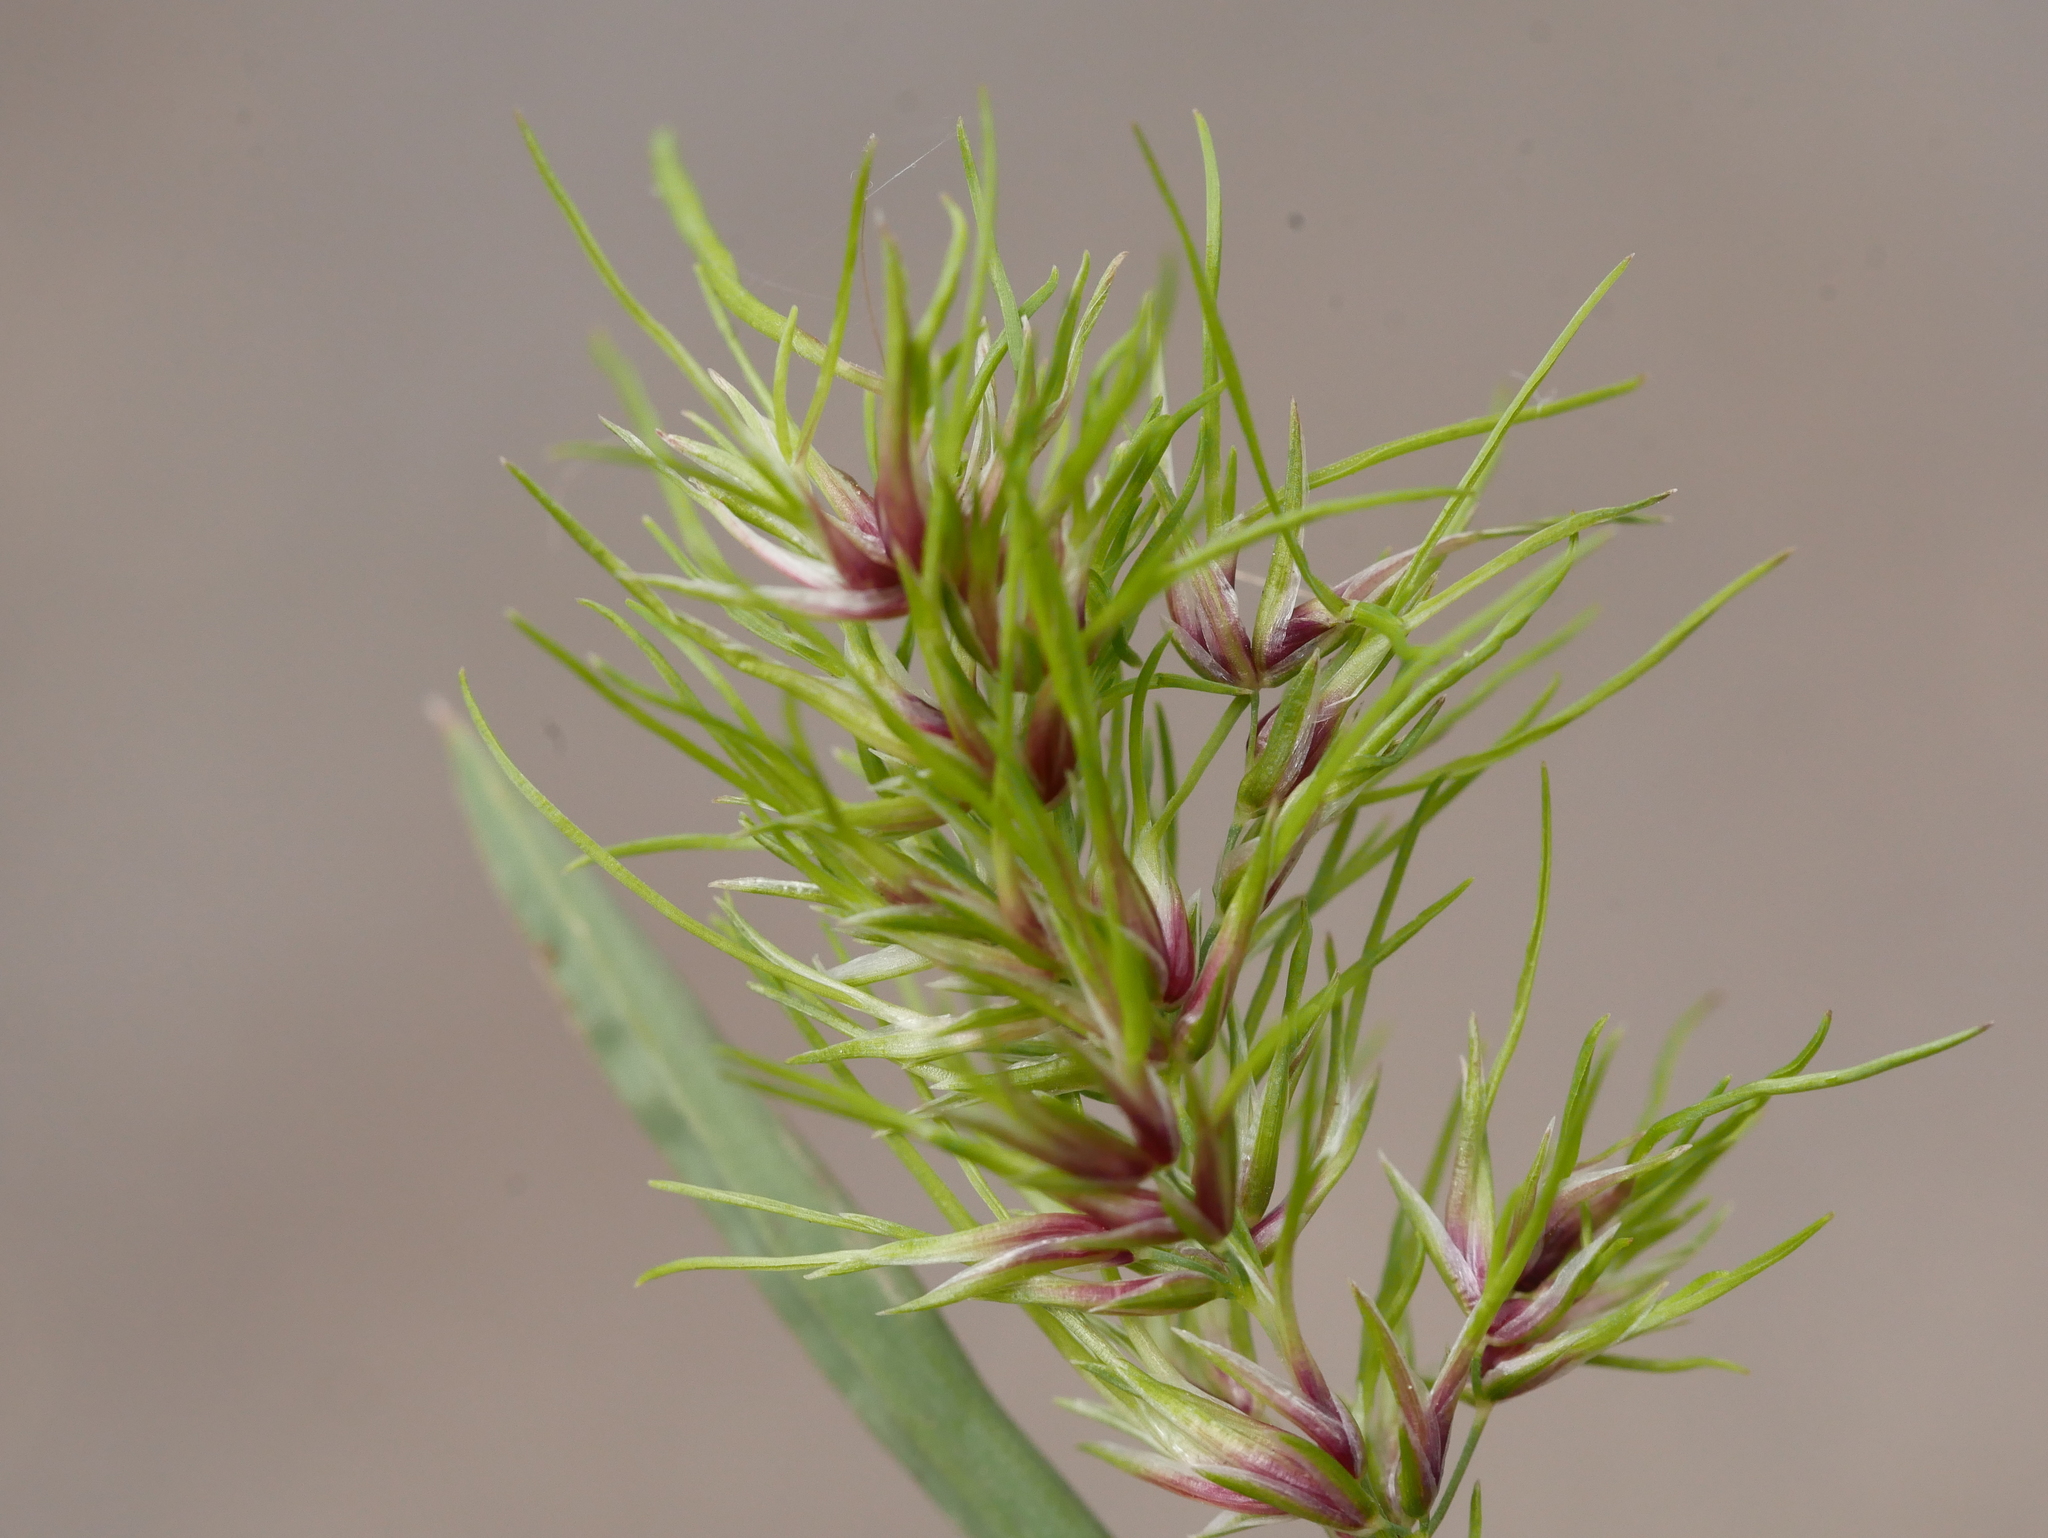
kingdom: Plantae
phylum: Tracheophyta
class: Liliopsida
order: Poales
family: Poaceae
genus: Poa
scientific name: Poa bulbosa
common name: Bulbous bluegrass
